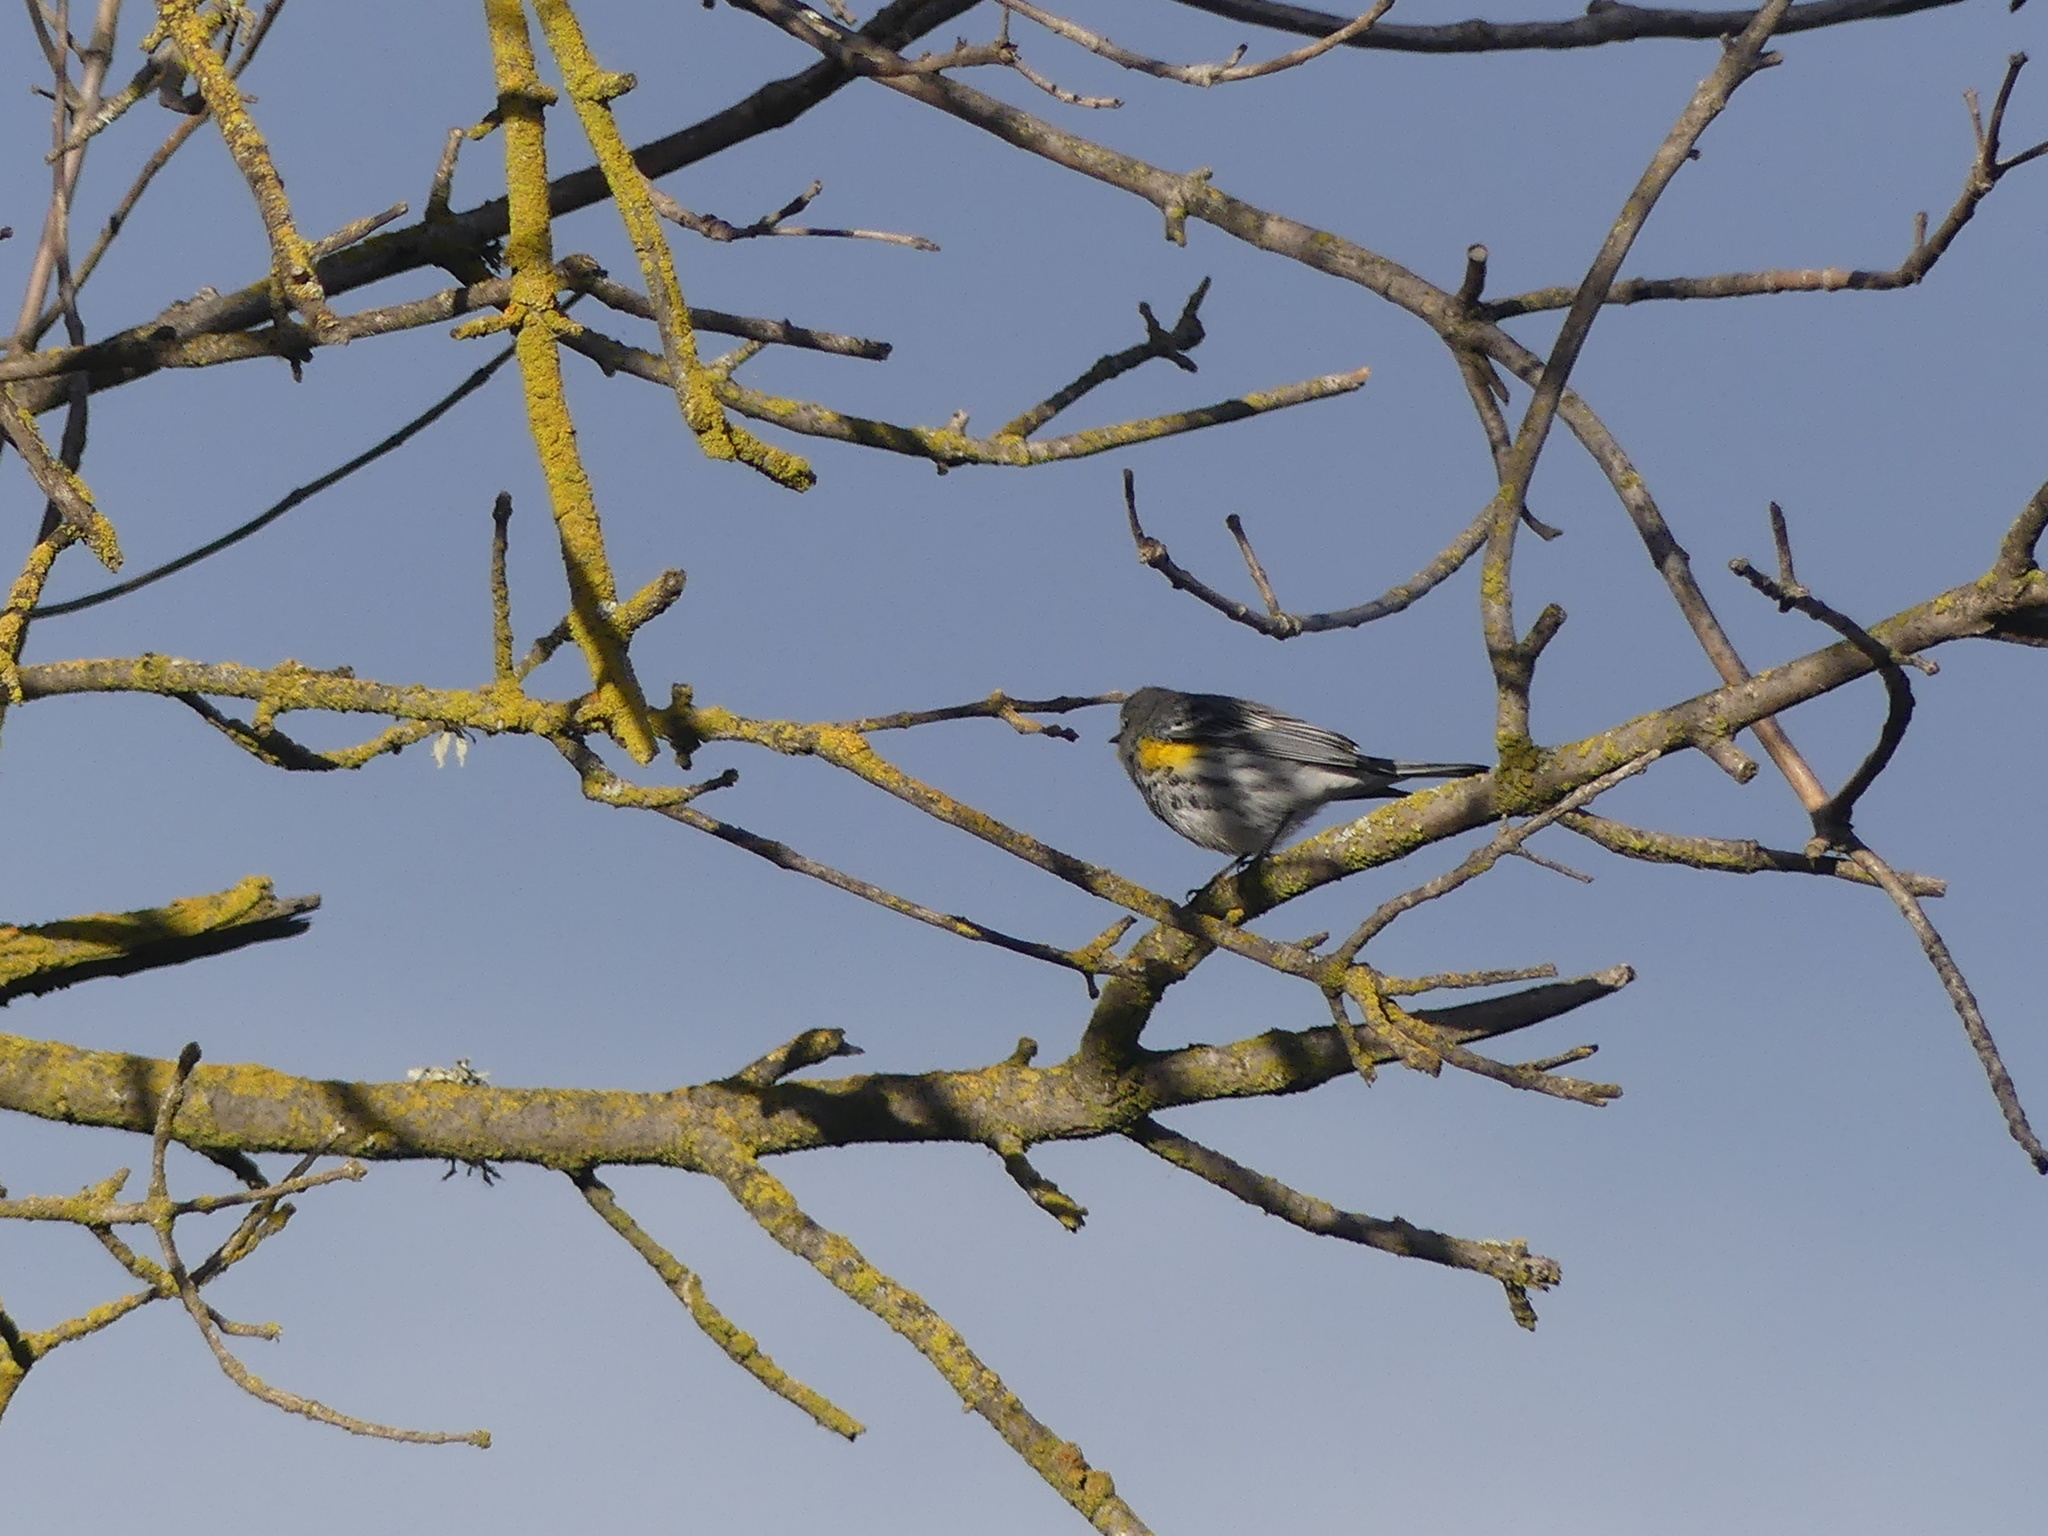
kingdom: Animalia
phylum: Chordata
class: Aves
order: Passeriformes
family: Parulidae
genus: Setophaga
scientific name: Setophaga coronata
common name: Myrtle warbler
